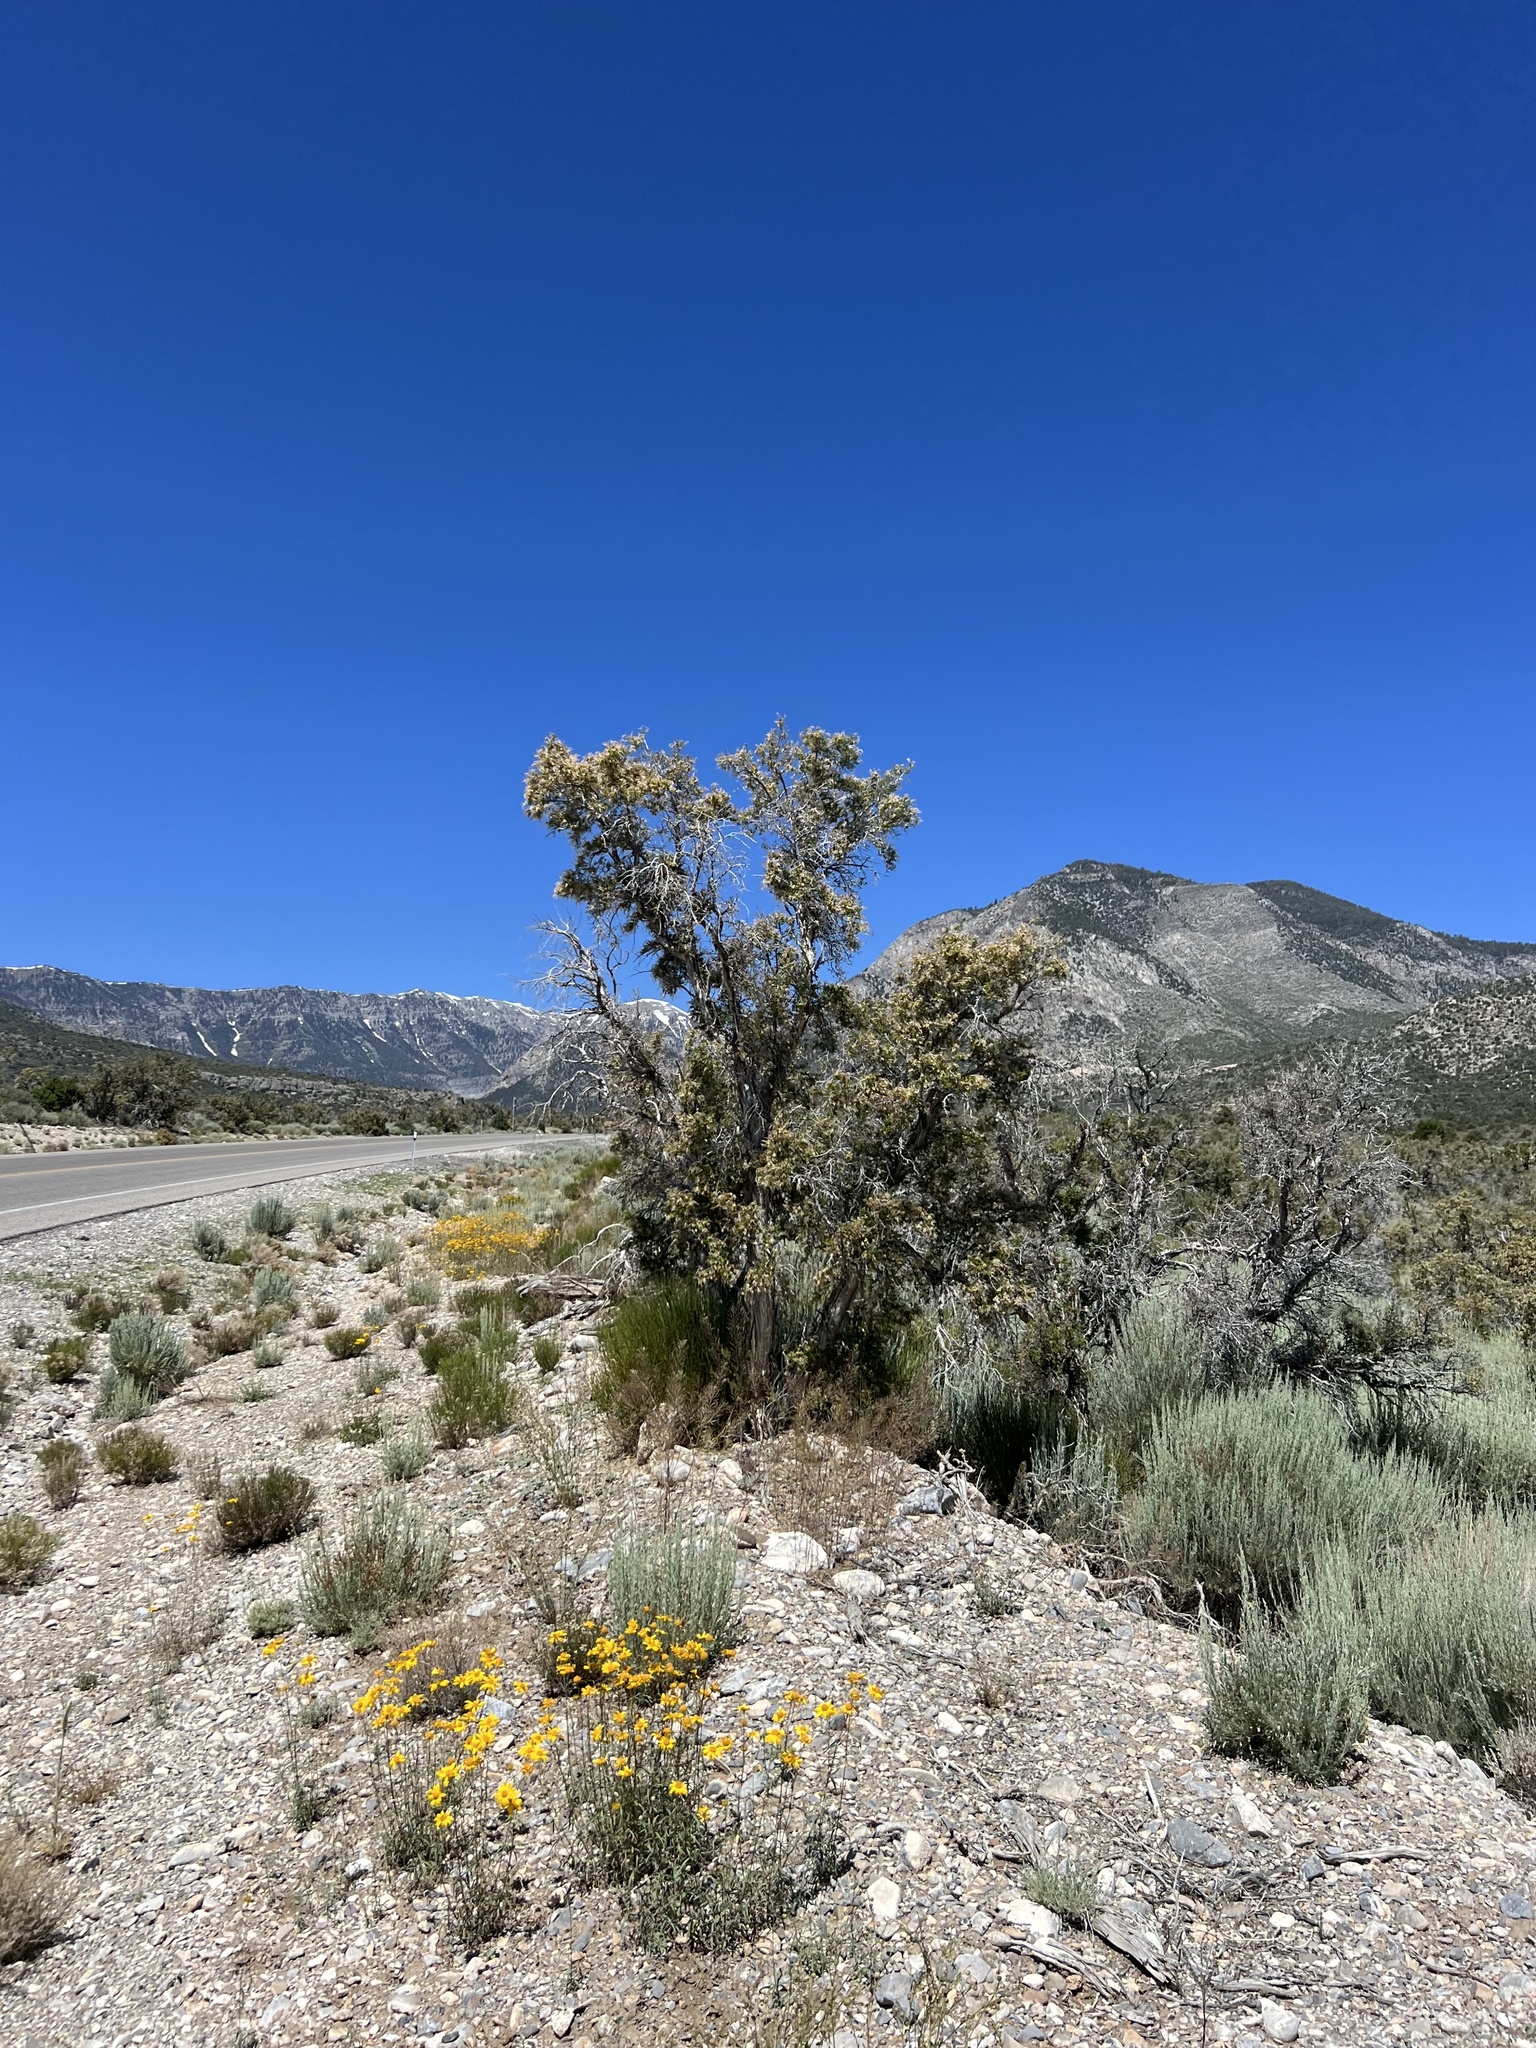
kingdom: Plantae
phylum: Tracheophyta
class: Magnoliopsida
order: Rosales
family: Rosaceae
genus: Purshia
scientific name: Purshia stansburiana
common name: Stansbury's cliffrose
